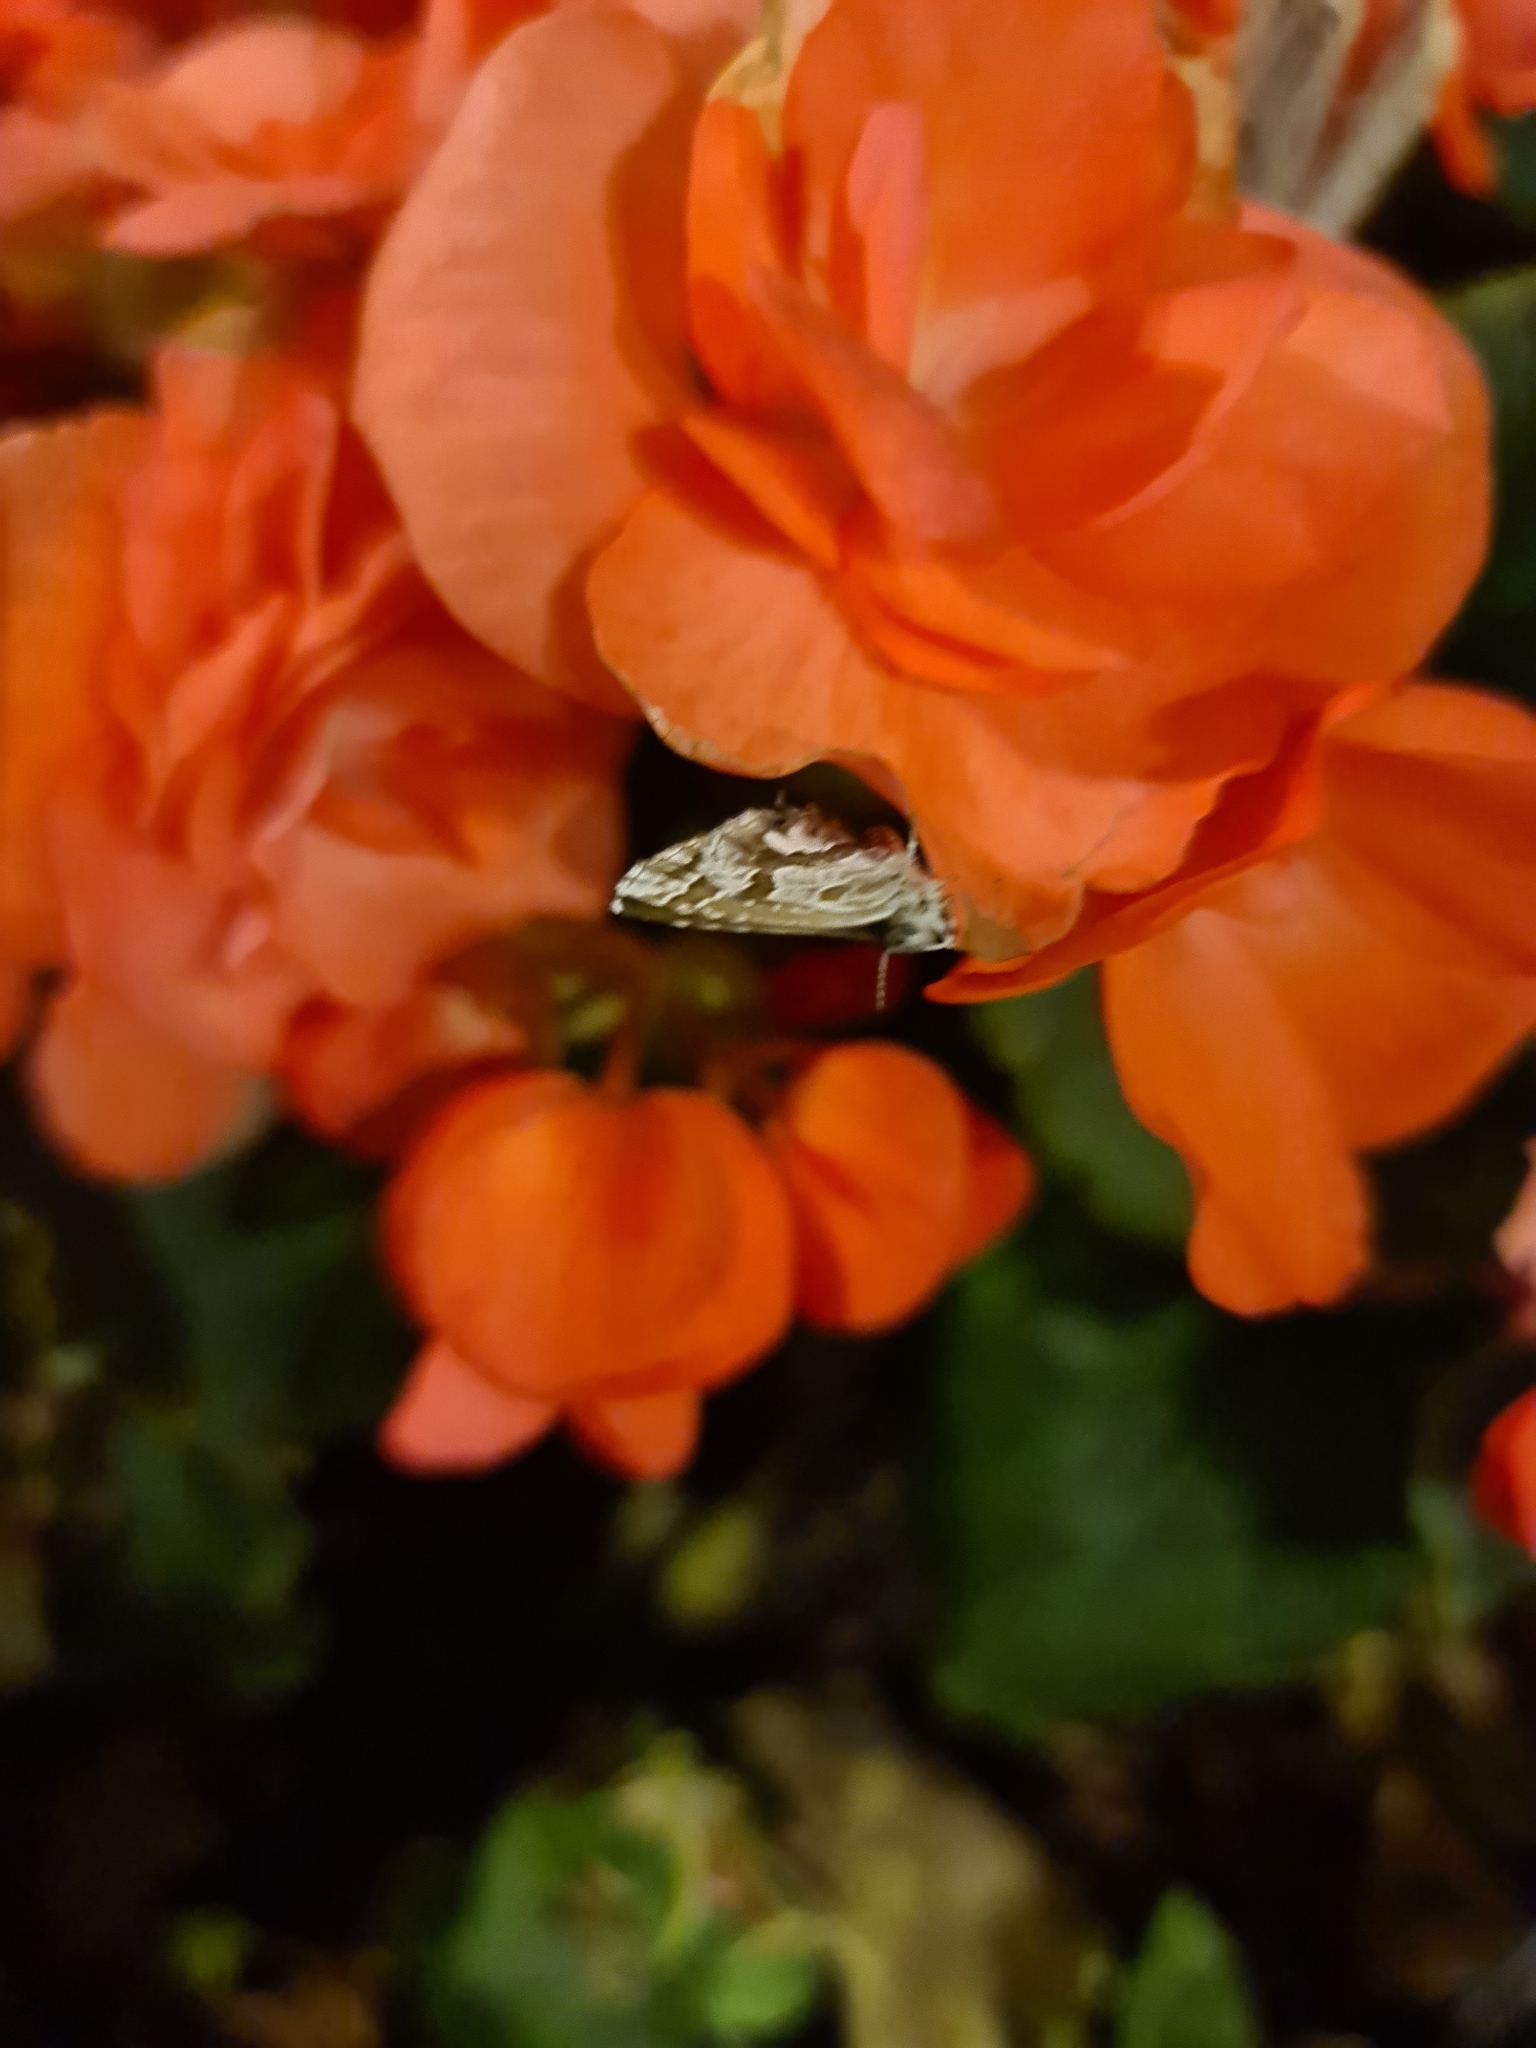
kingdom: Animalia
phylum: Arthropoda
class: Insecta
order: Lepidoptera
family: Lycaenidae
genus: Cacyreus
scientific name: Cacyreus marshalli
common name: Geranium bronze
